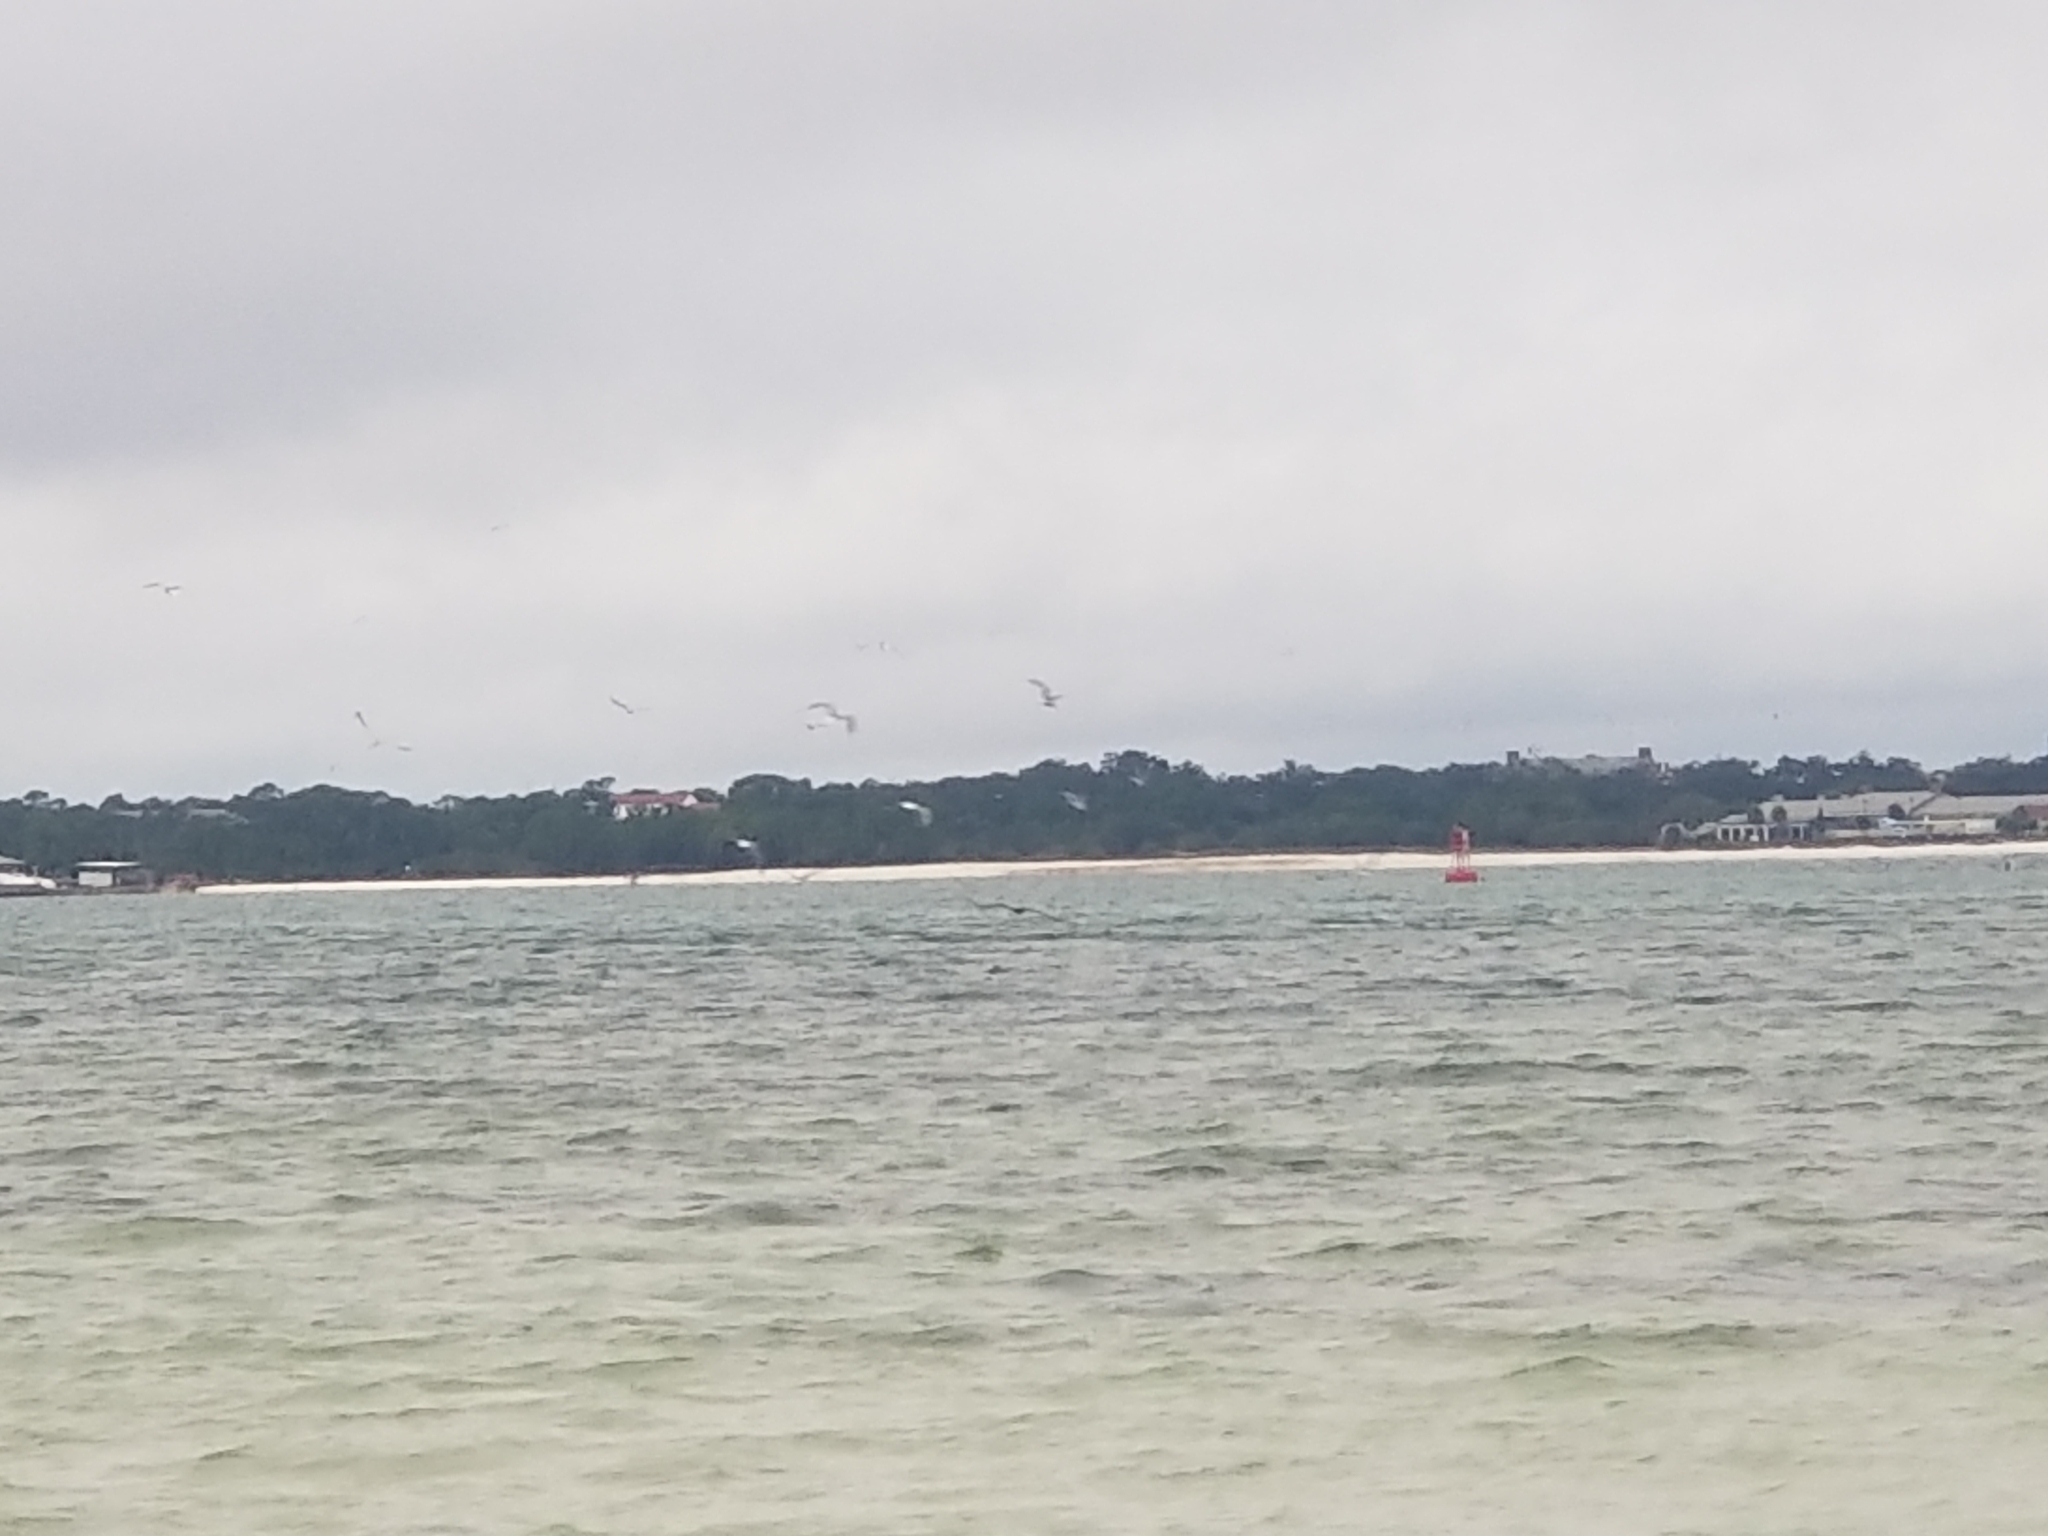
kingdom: Animalia
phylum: Chordata
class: Aves
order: Charadriiformes
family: Laridae
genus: Larus
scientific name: Larus
